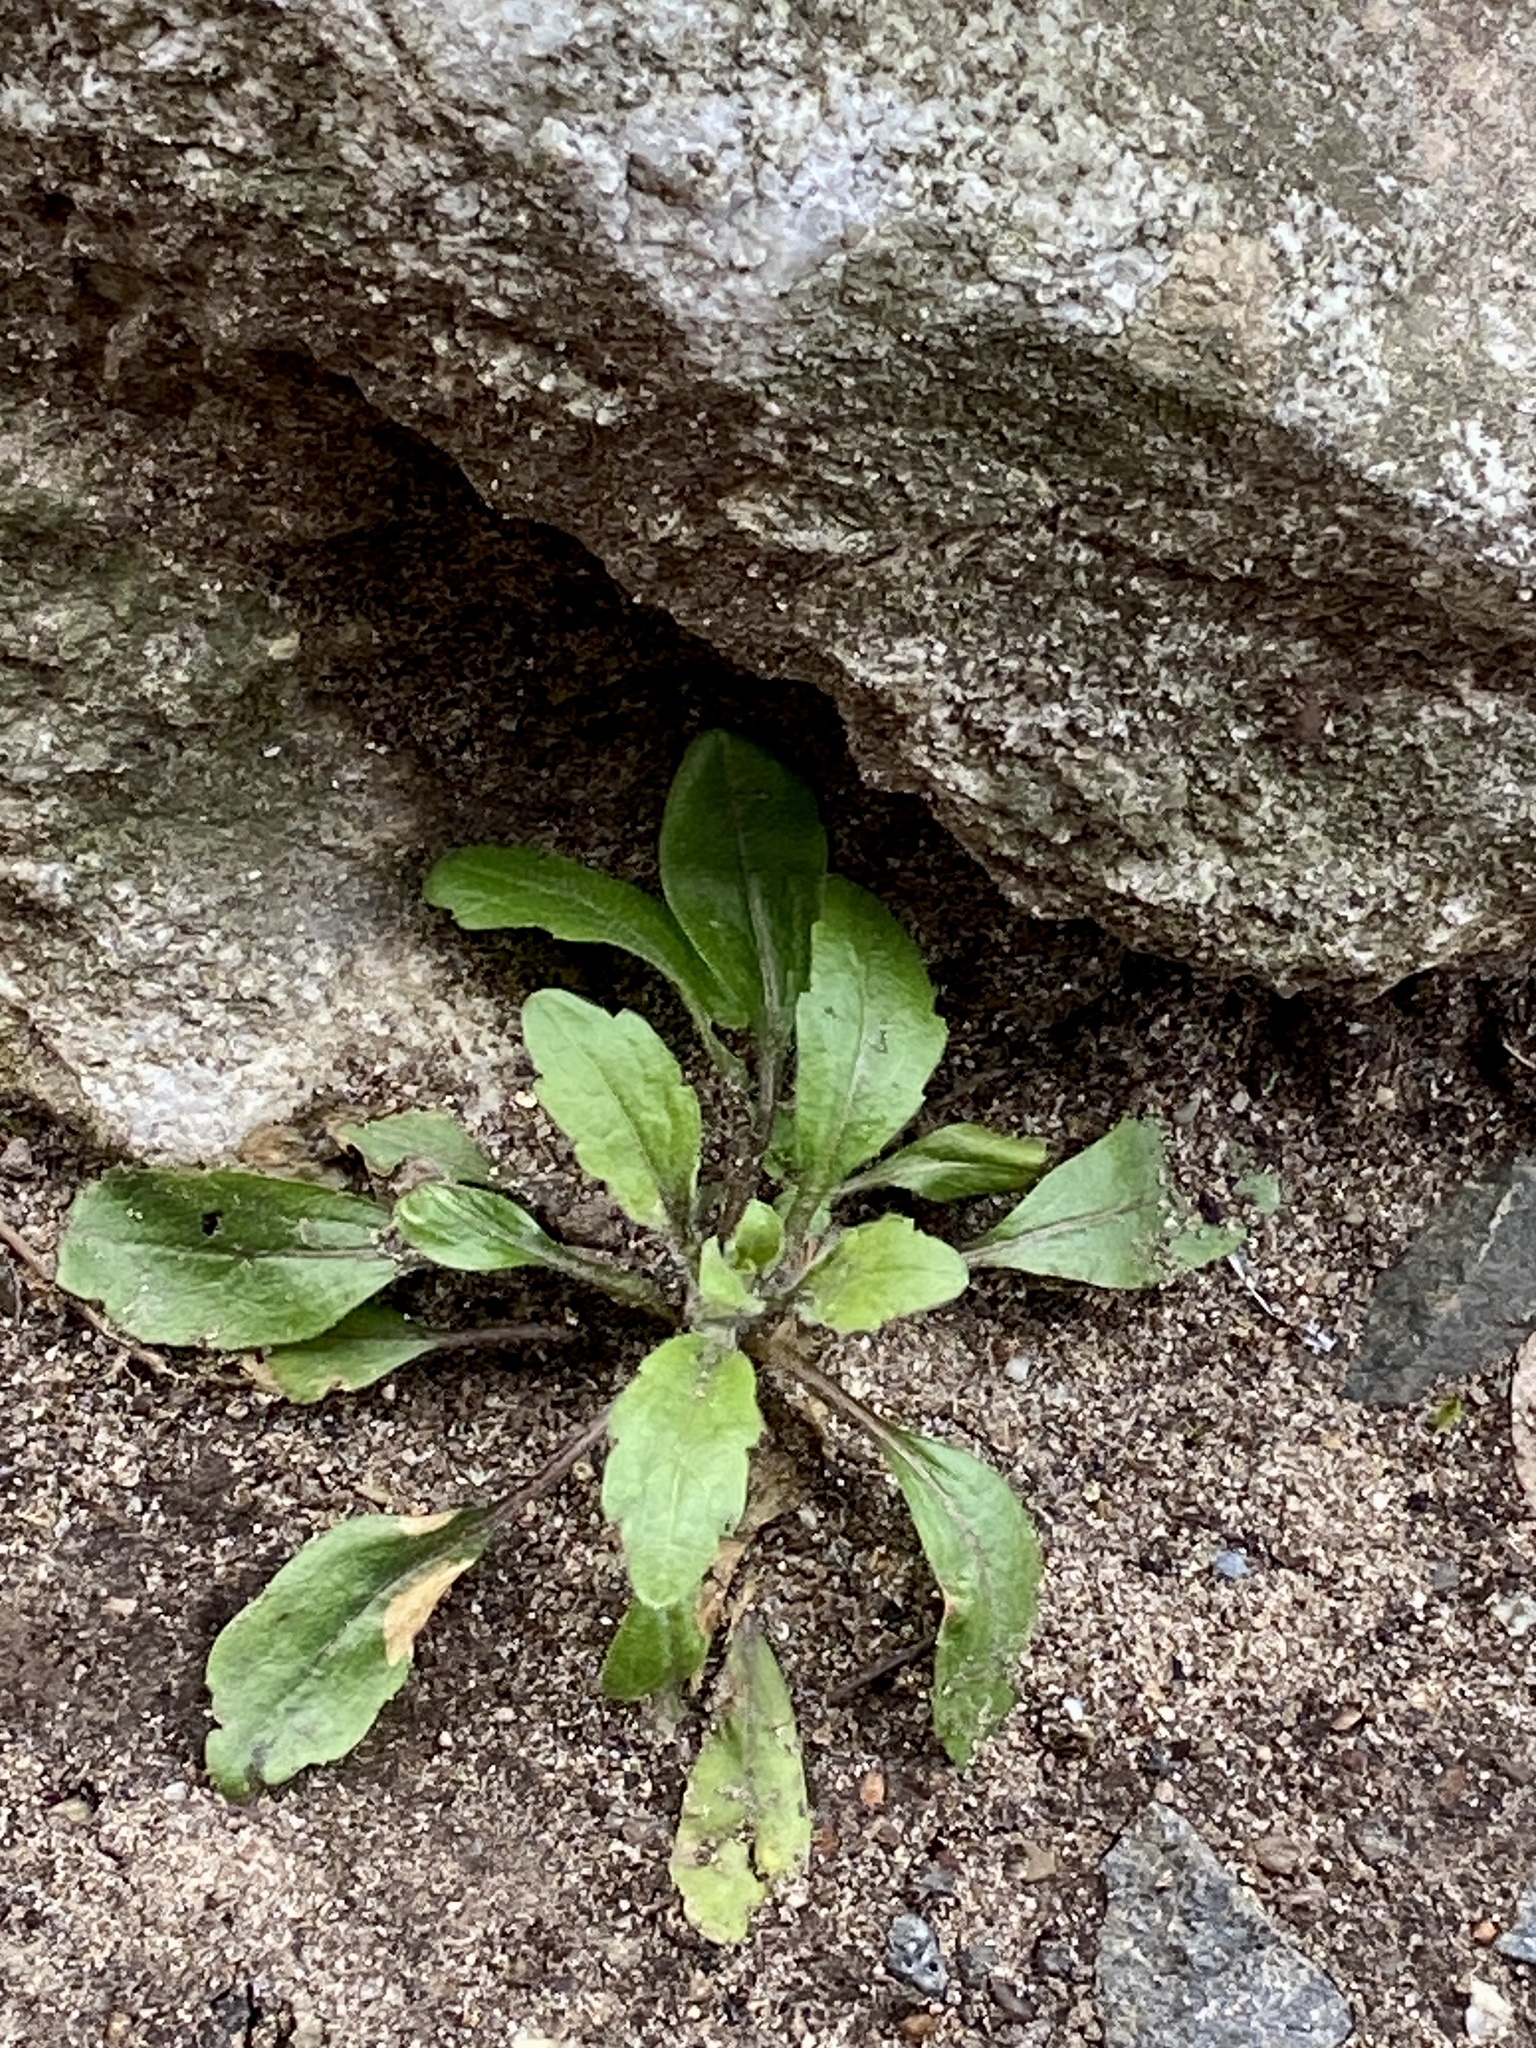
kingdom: Plantae
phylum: Tracheophyta
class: Magnoliopsida
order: Asterales
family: Asteraceae
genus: Erigeron
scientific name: Erigeron canadensis
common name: Canadian fleabane
